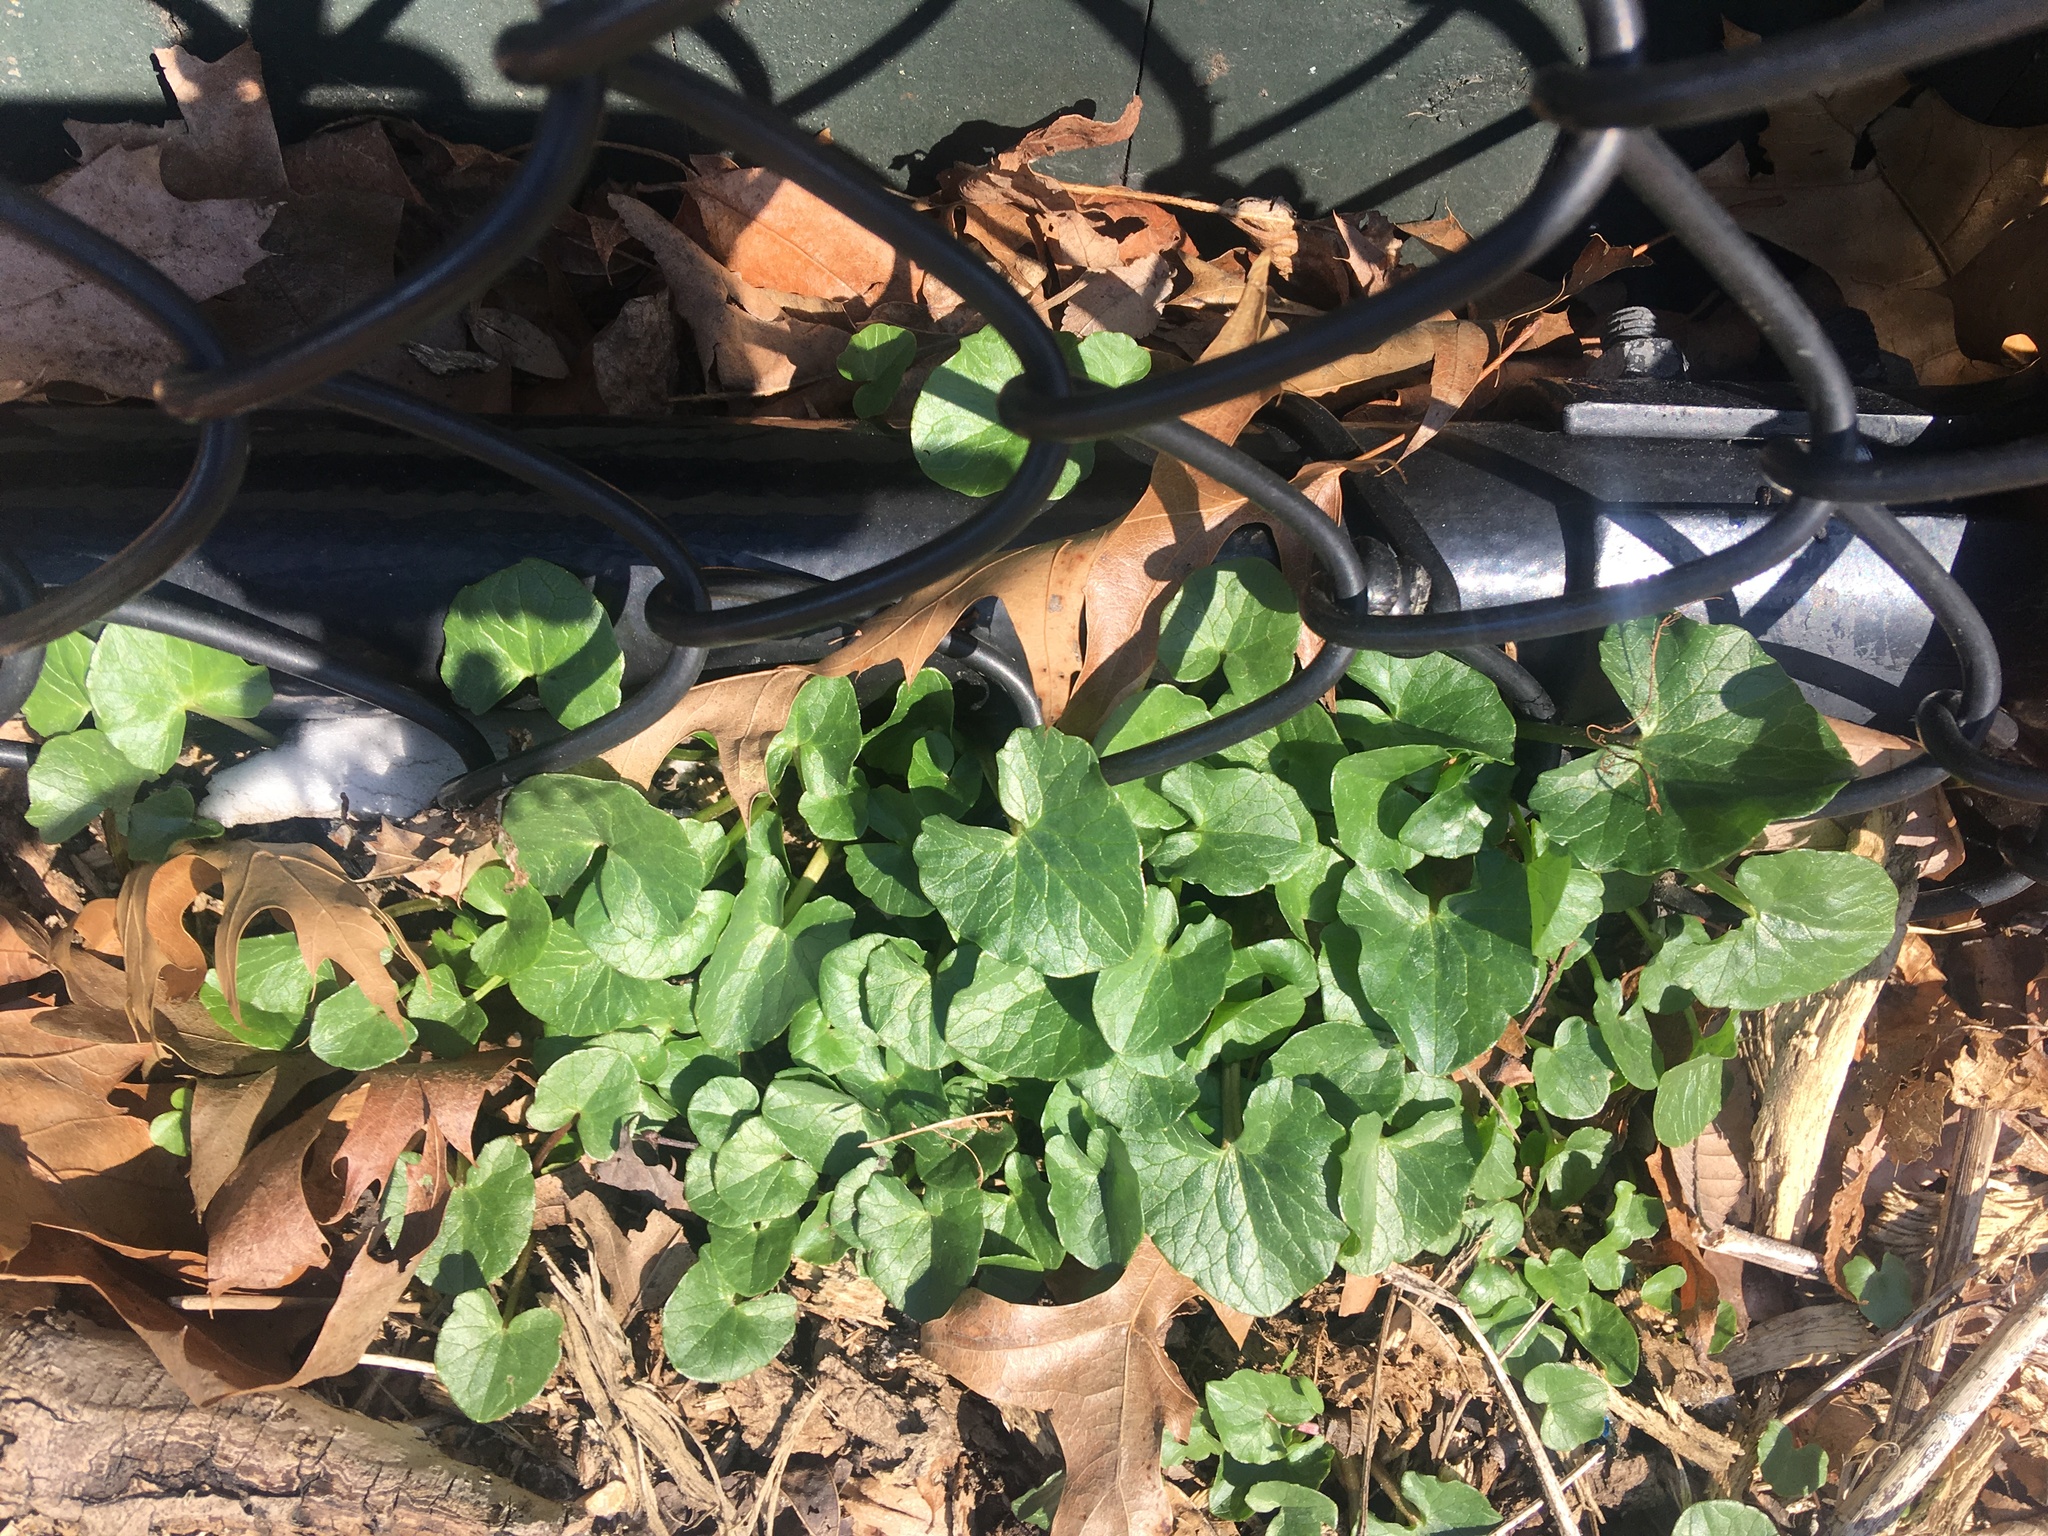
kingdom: Plantae
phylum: Tracheophyta
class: Magnoliopsida
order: Ranunculales
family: Ranunculaceae
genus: Ficaria
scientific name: Ficaria verna
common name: Lesser celandine
